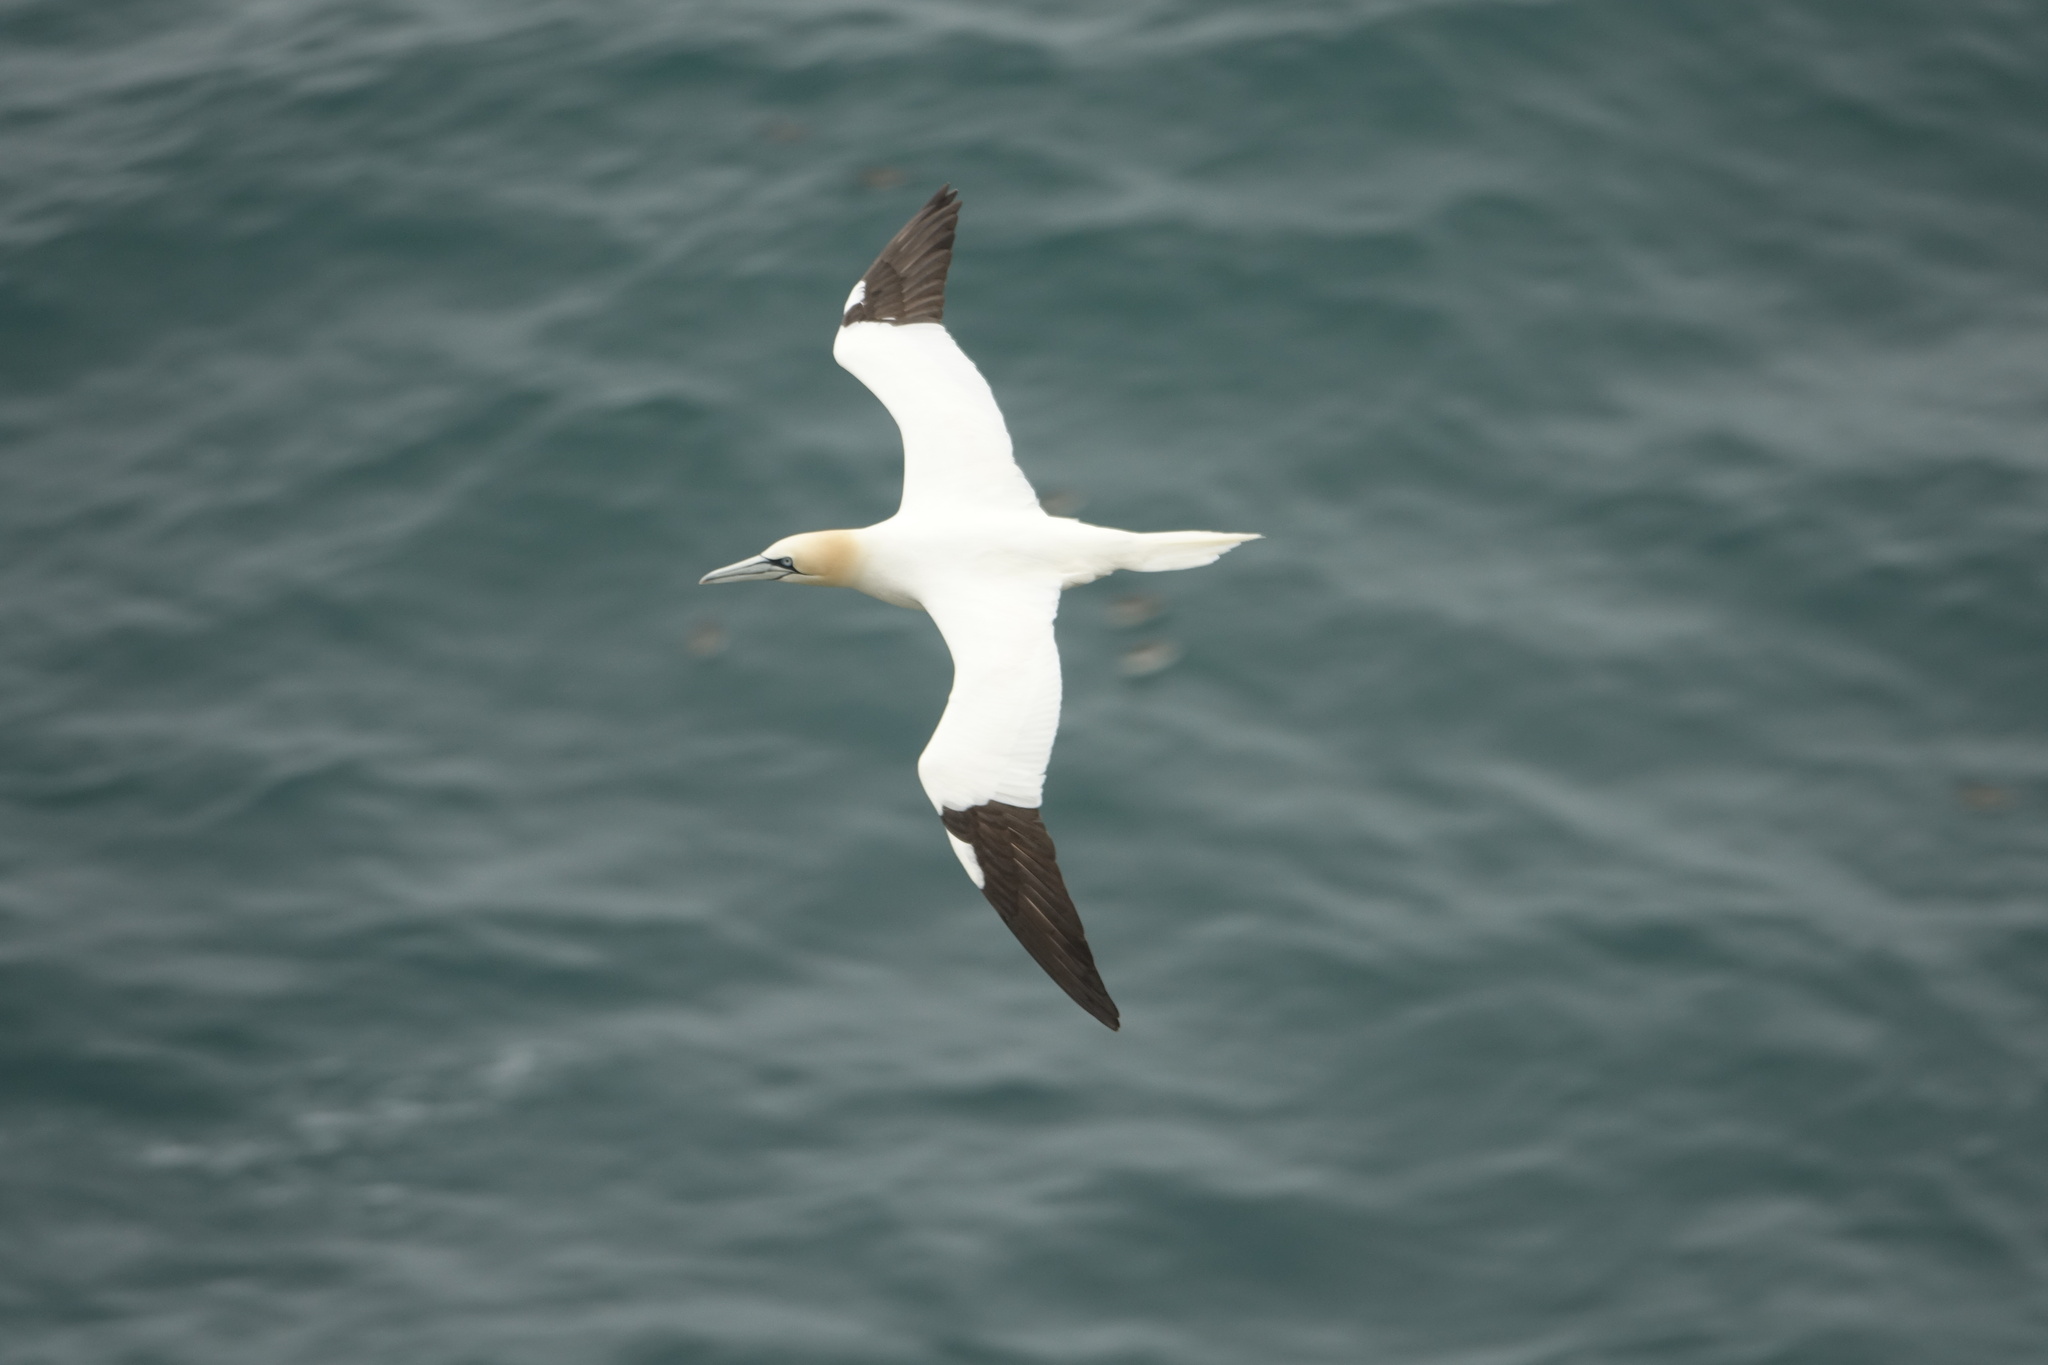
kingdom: Animalia
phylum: Chordata
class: Aves
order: Suliformes
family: Sulidae
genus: Morus
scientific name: Morus bassanus
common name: Northern gannet
